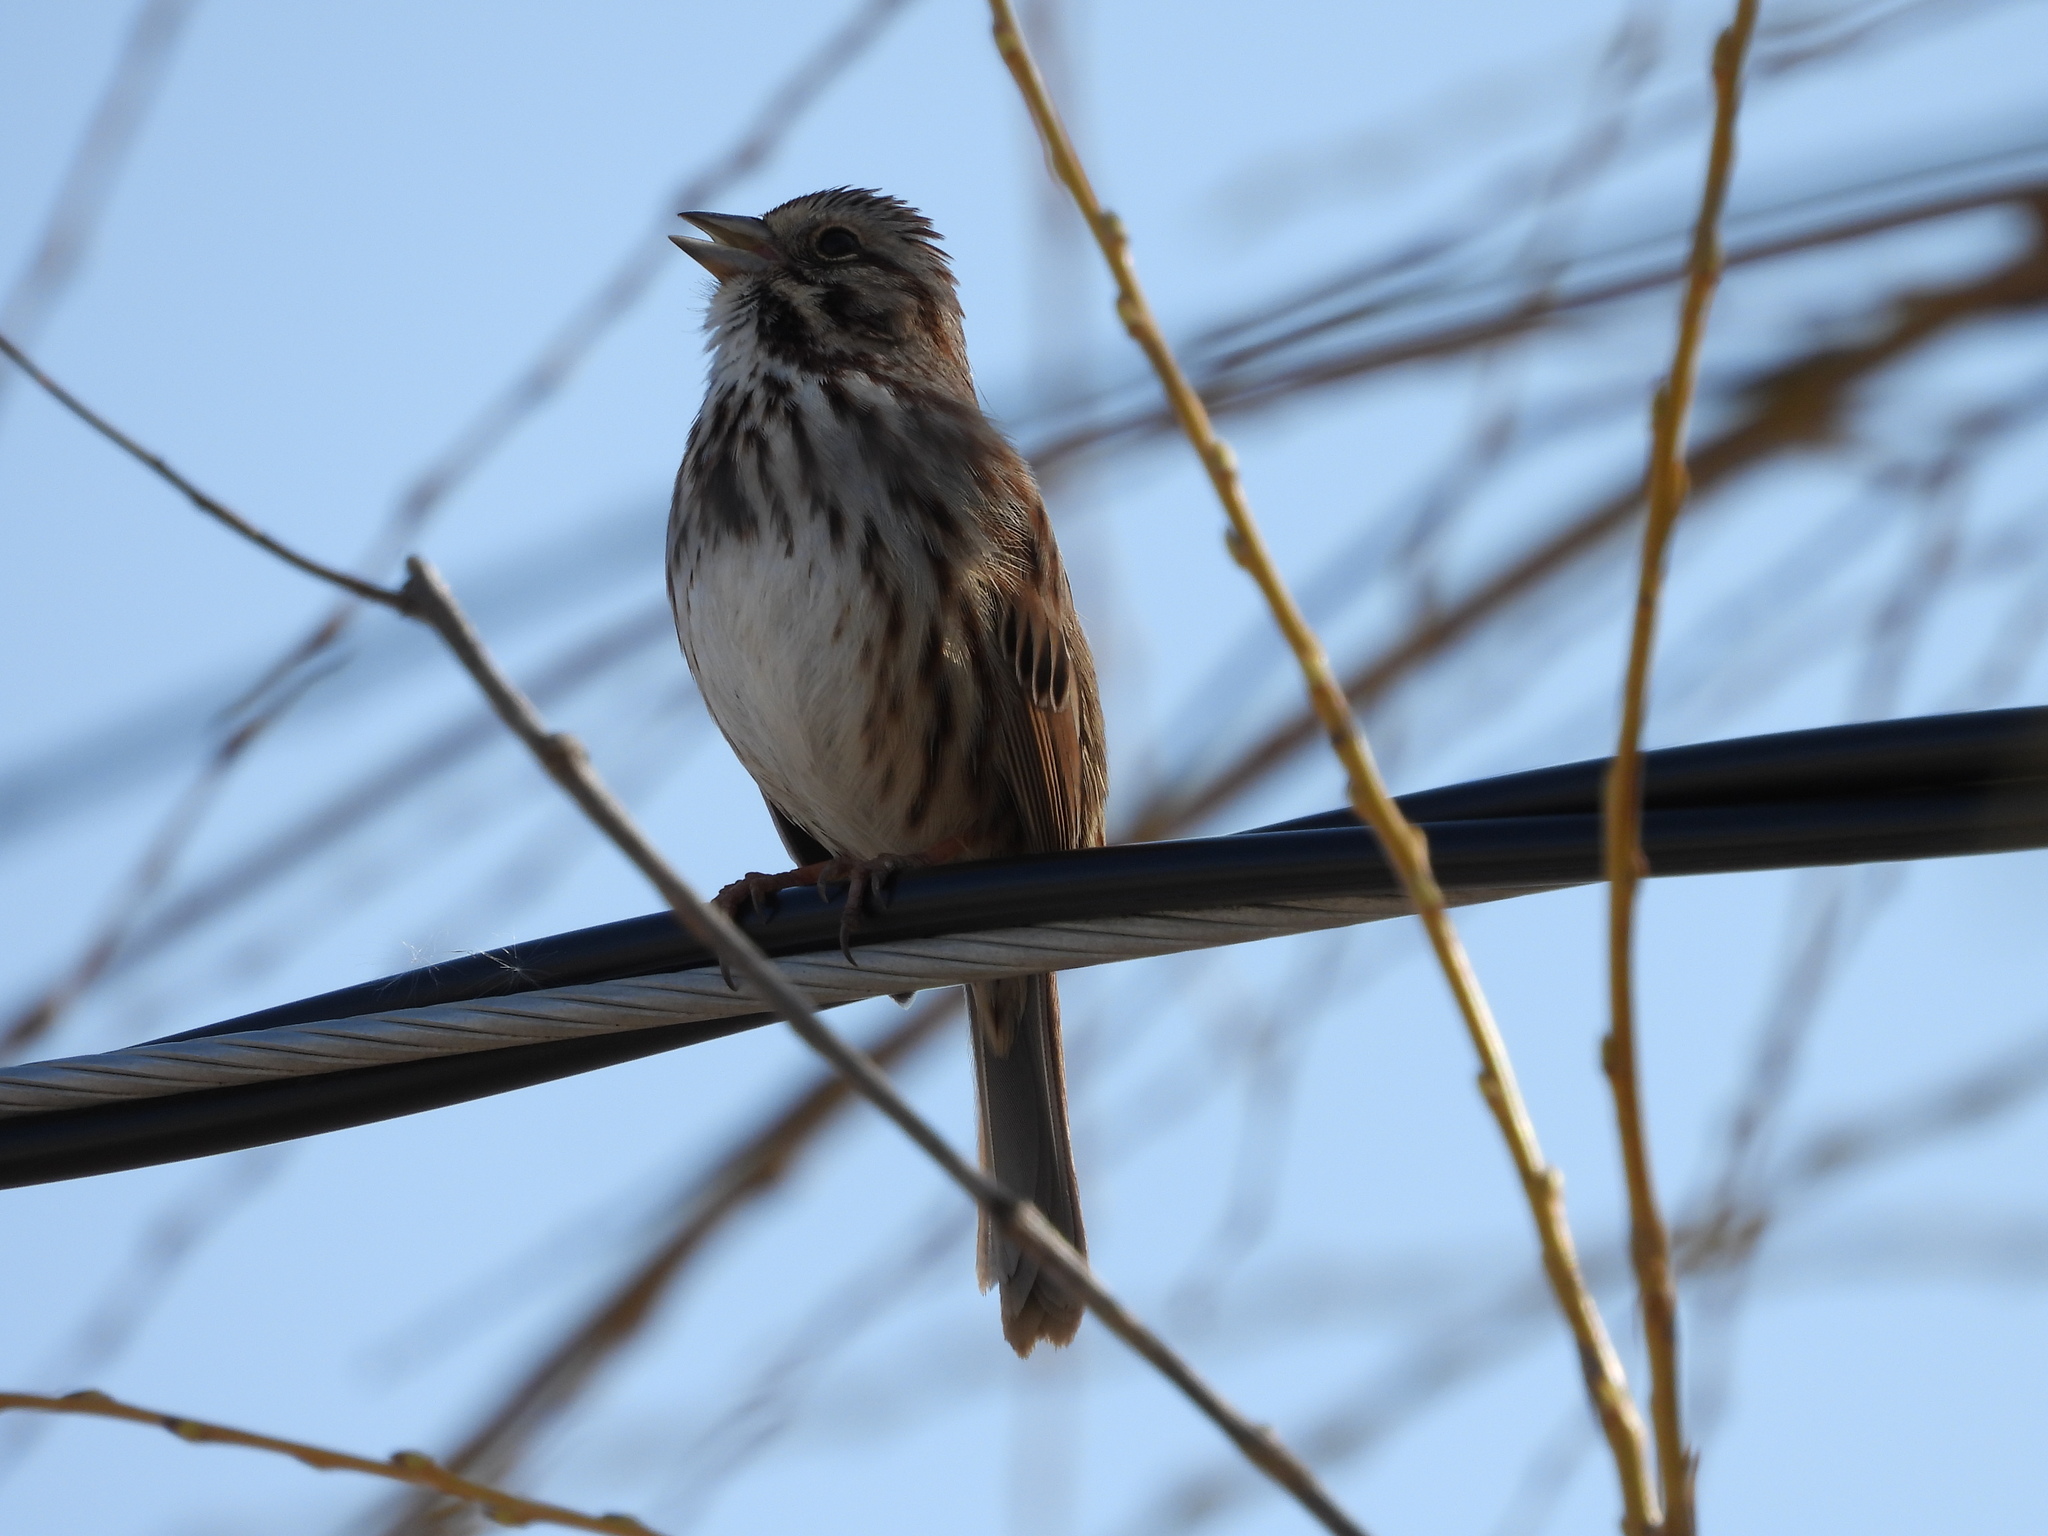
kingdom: Animalia
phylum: Chordata
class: Aves
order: Passeriformes
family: Passerellidae
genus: Melospiza
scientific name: Melospiza melodia
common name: Song sparrow
